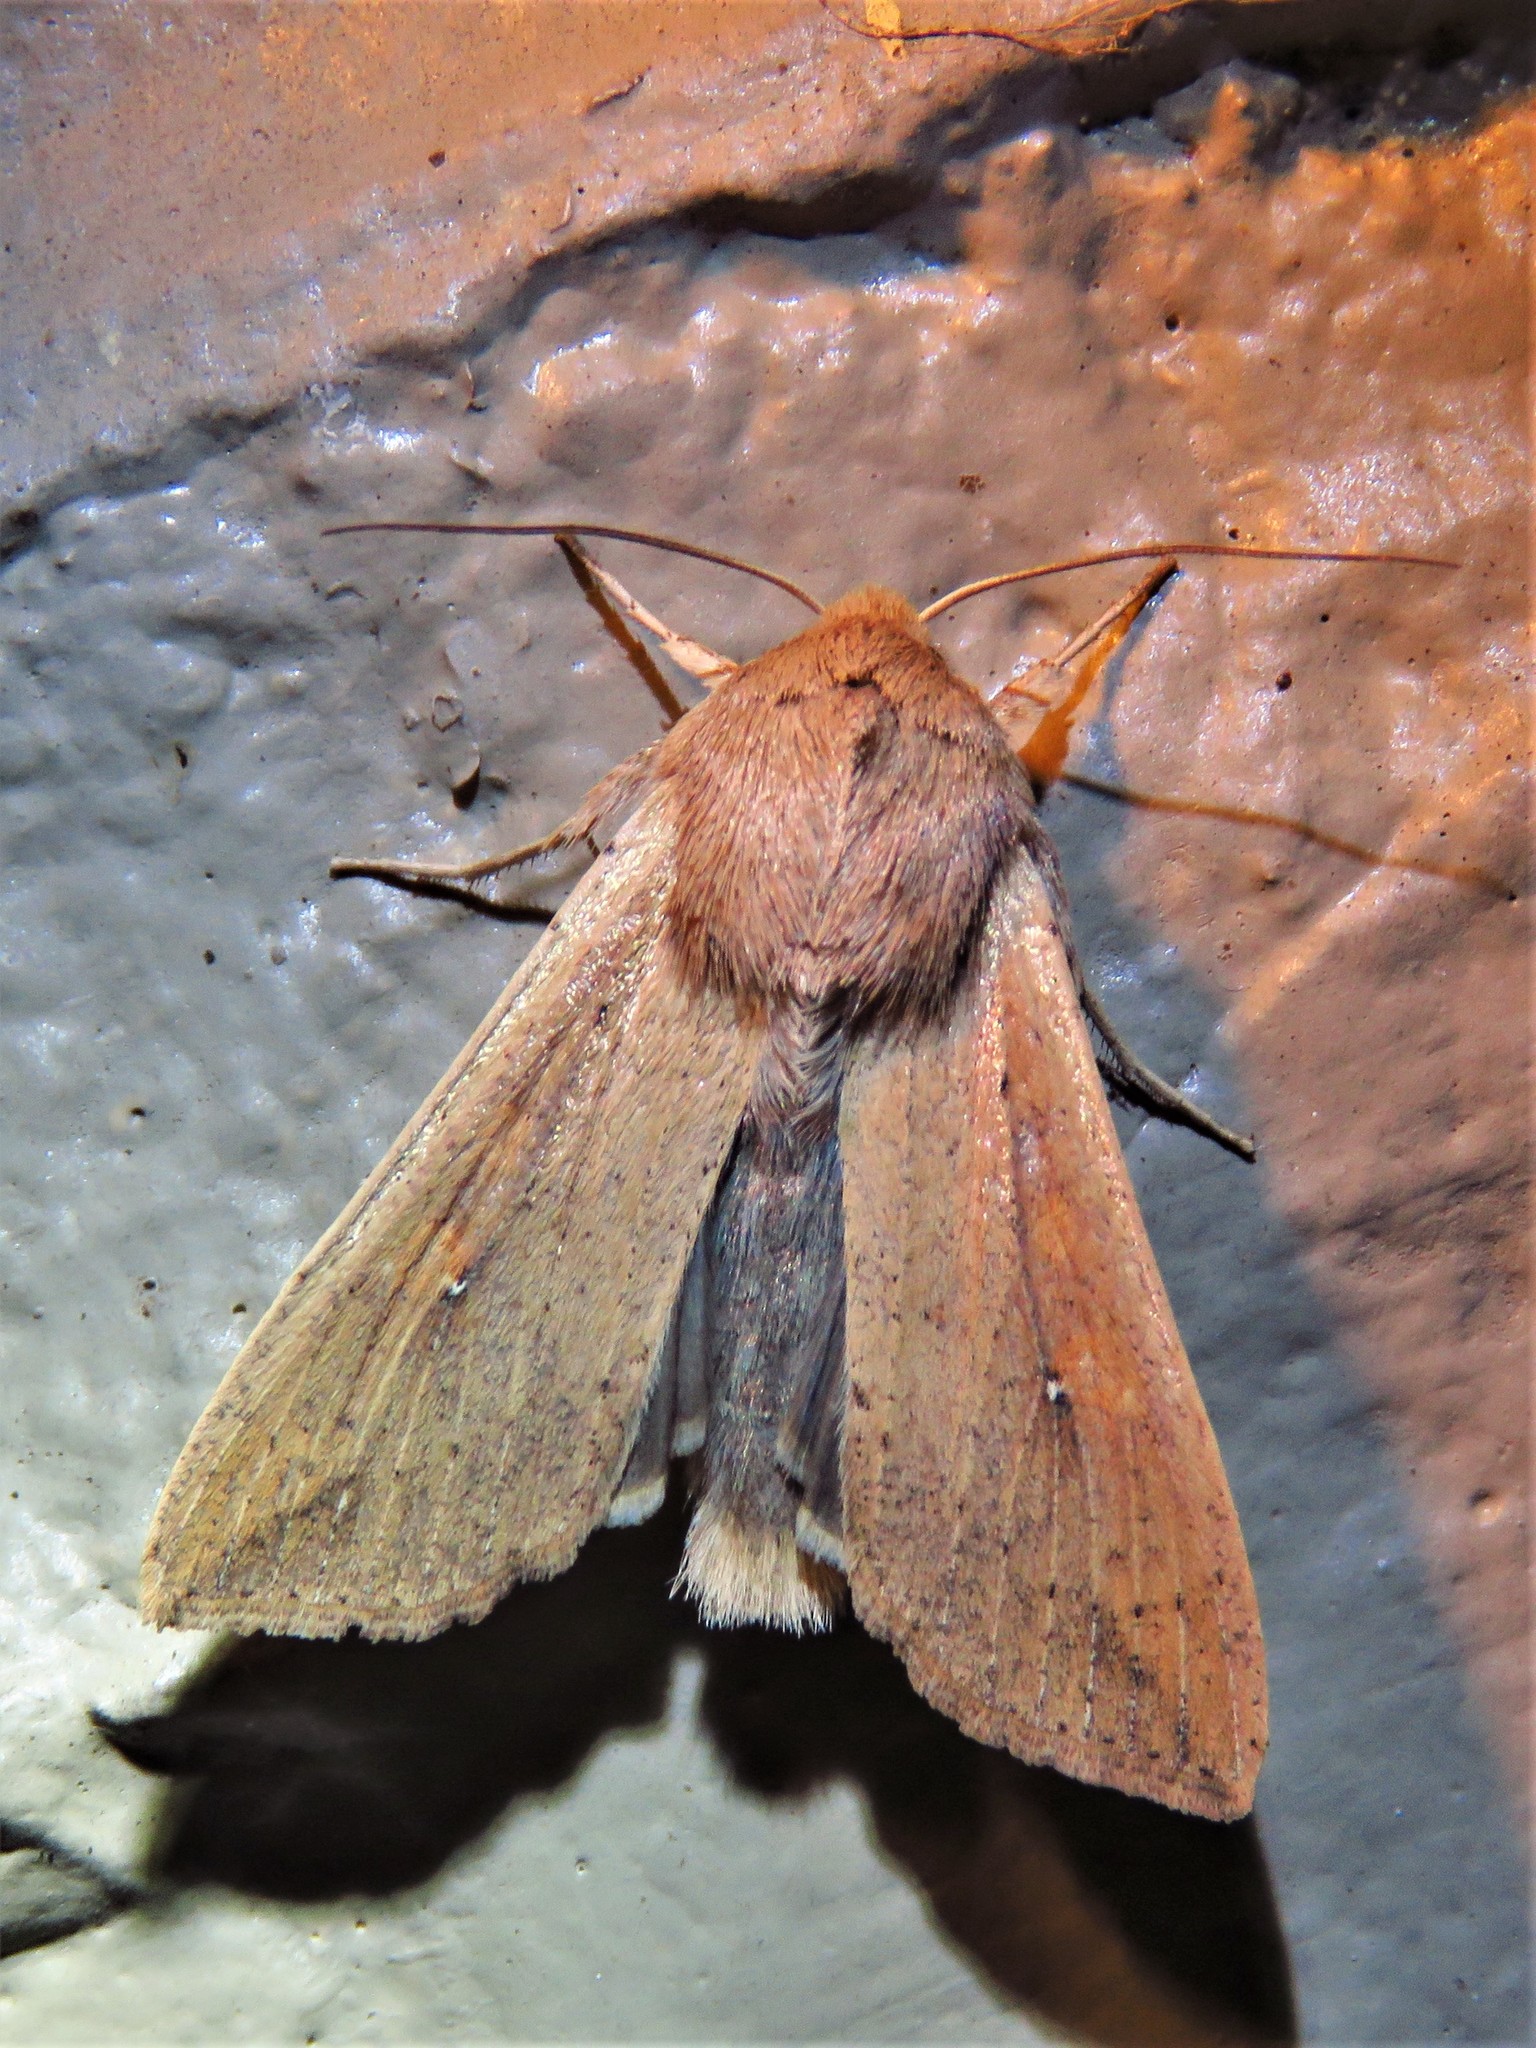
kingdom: Animalia
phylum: Arthropoda
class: Insecta
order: Lepidoptera
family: Noctuidae
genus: Mythimna
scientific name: Mythimna unipuncta
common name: White-speck
